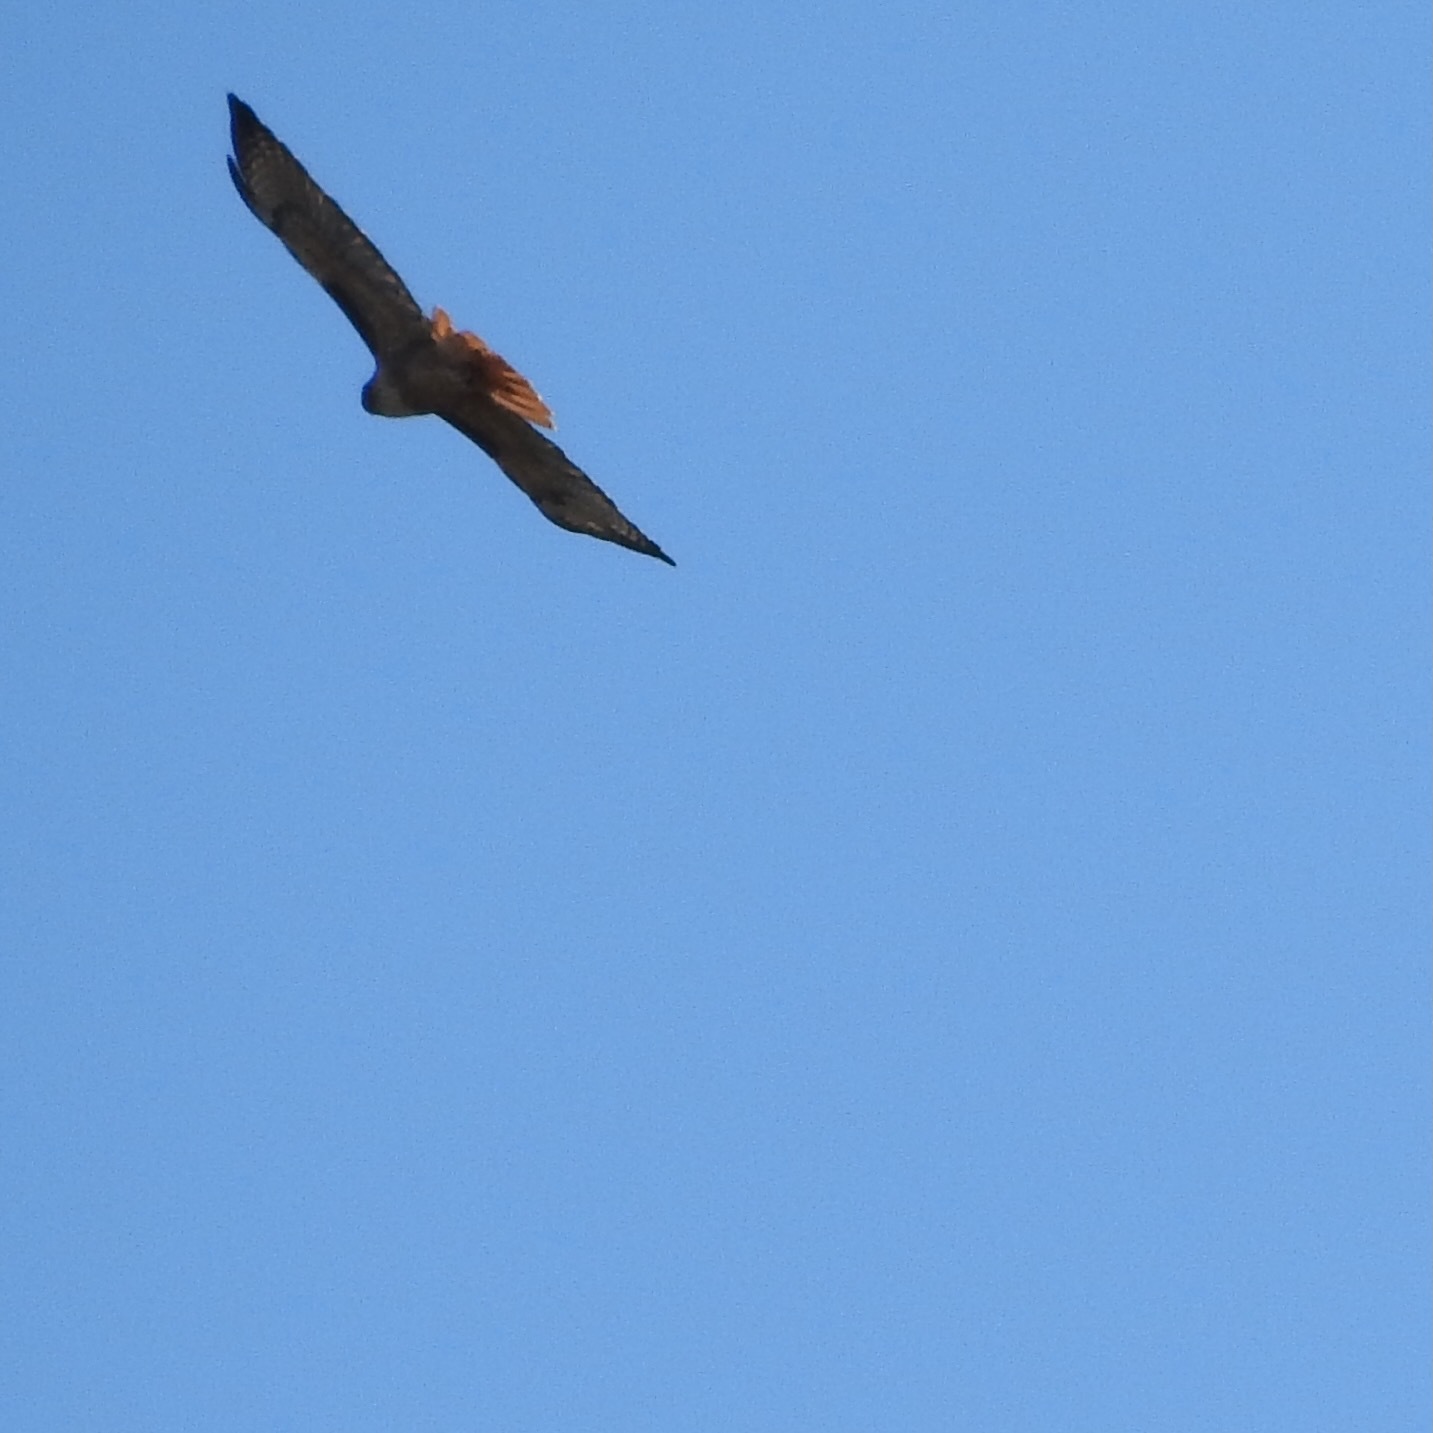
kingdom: Animalia
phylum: Chordata
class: Aves
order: Accipitriformes
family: Accipitridae
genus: Buteo
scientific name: Buteo jamaicensis
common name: Red-tailed hawk
